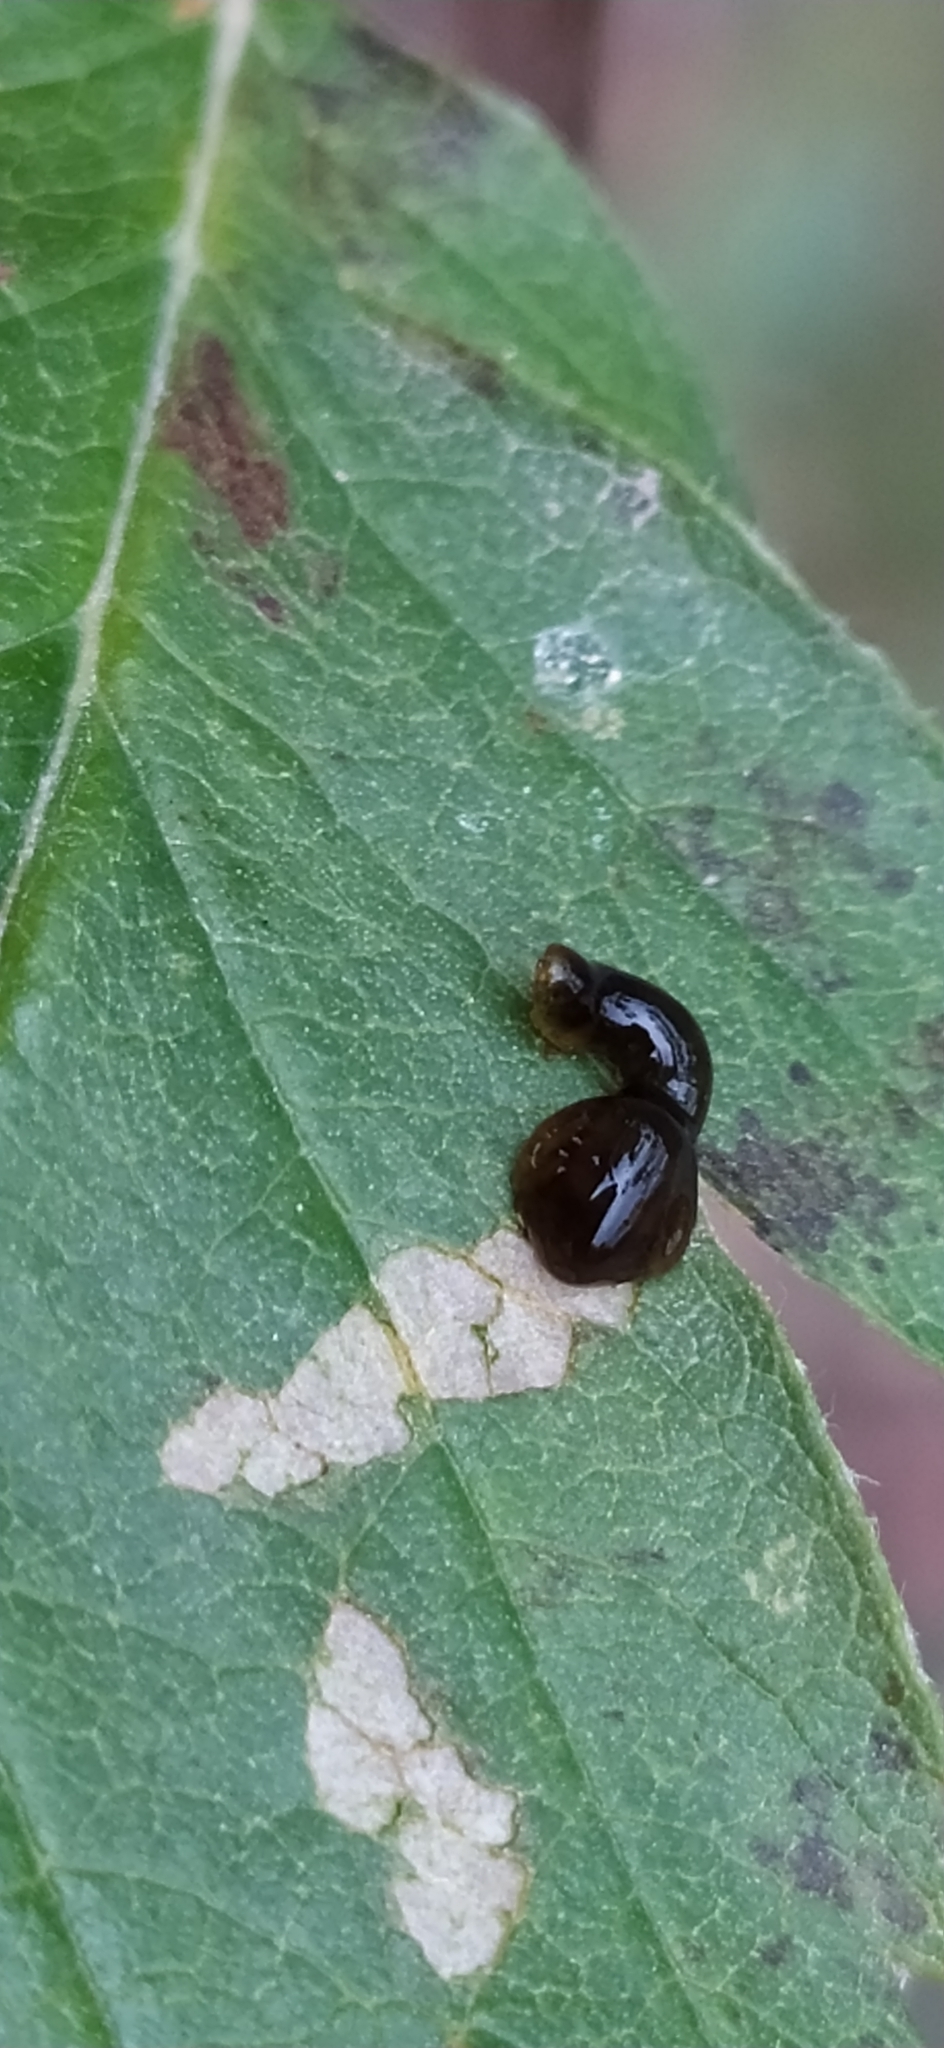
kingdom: Animalia
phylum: Arthropoda
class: Insecta
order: Hymenoptera
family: Tenthredinidae
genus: Caliroa
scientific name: Caliroa cerasi
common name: Pear sawfly
